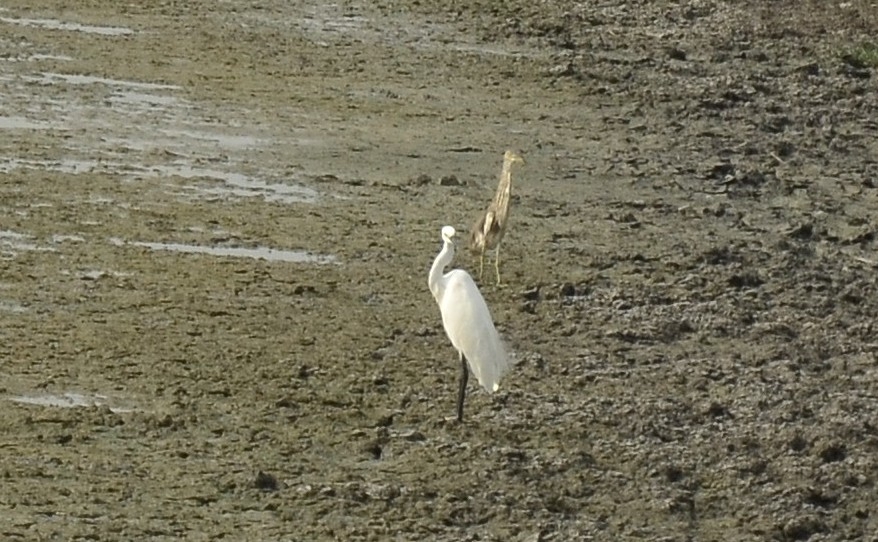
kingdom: Animalia
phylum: Chordata
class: Aves
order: Pelecaniformes
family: Ardeidae
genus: Egretta
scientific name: Egretta garzetta
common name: Little egret
